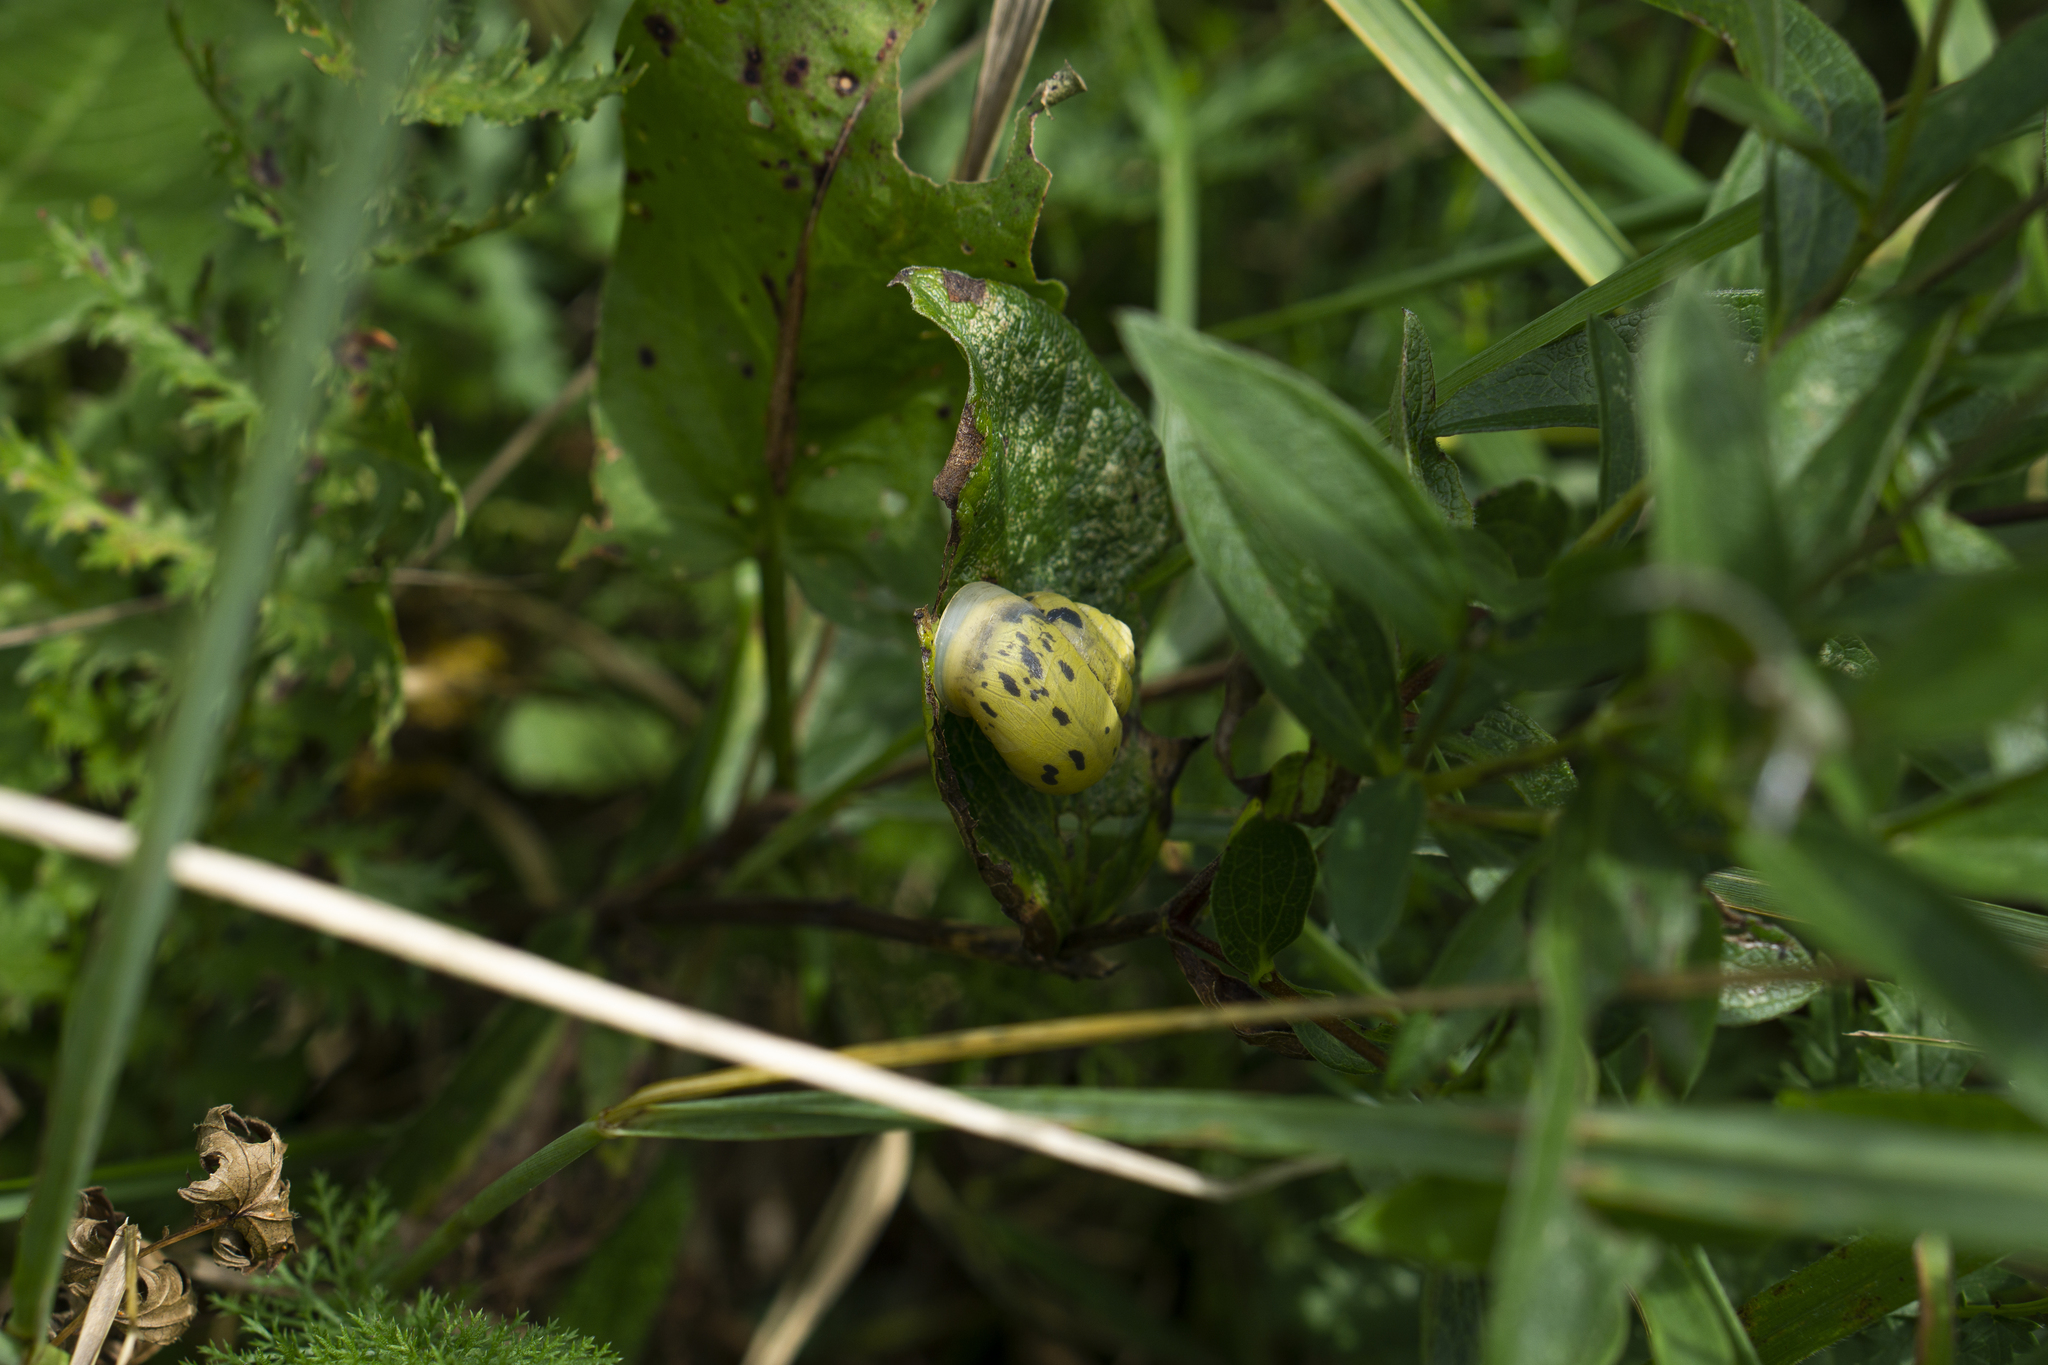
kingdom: Animalia
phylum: Mollusca
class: Gastropoda
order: Stylommatophora
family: Camaenidae
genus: Fruticicola
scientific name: Fruticicola fruticum
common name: Bush snail
